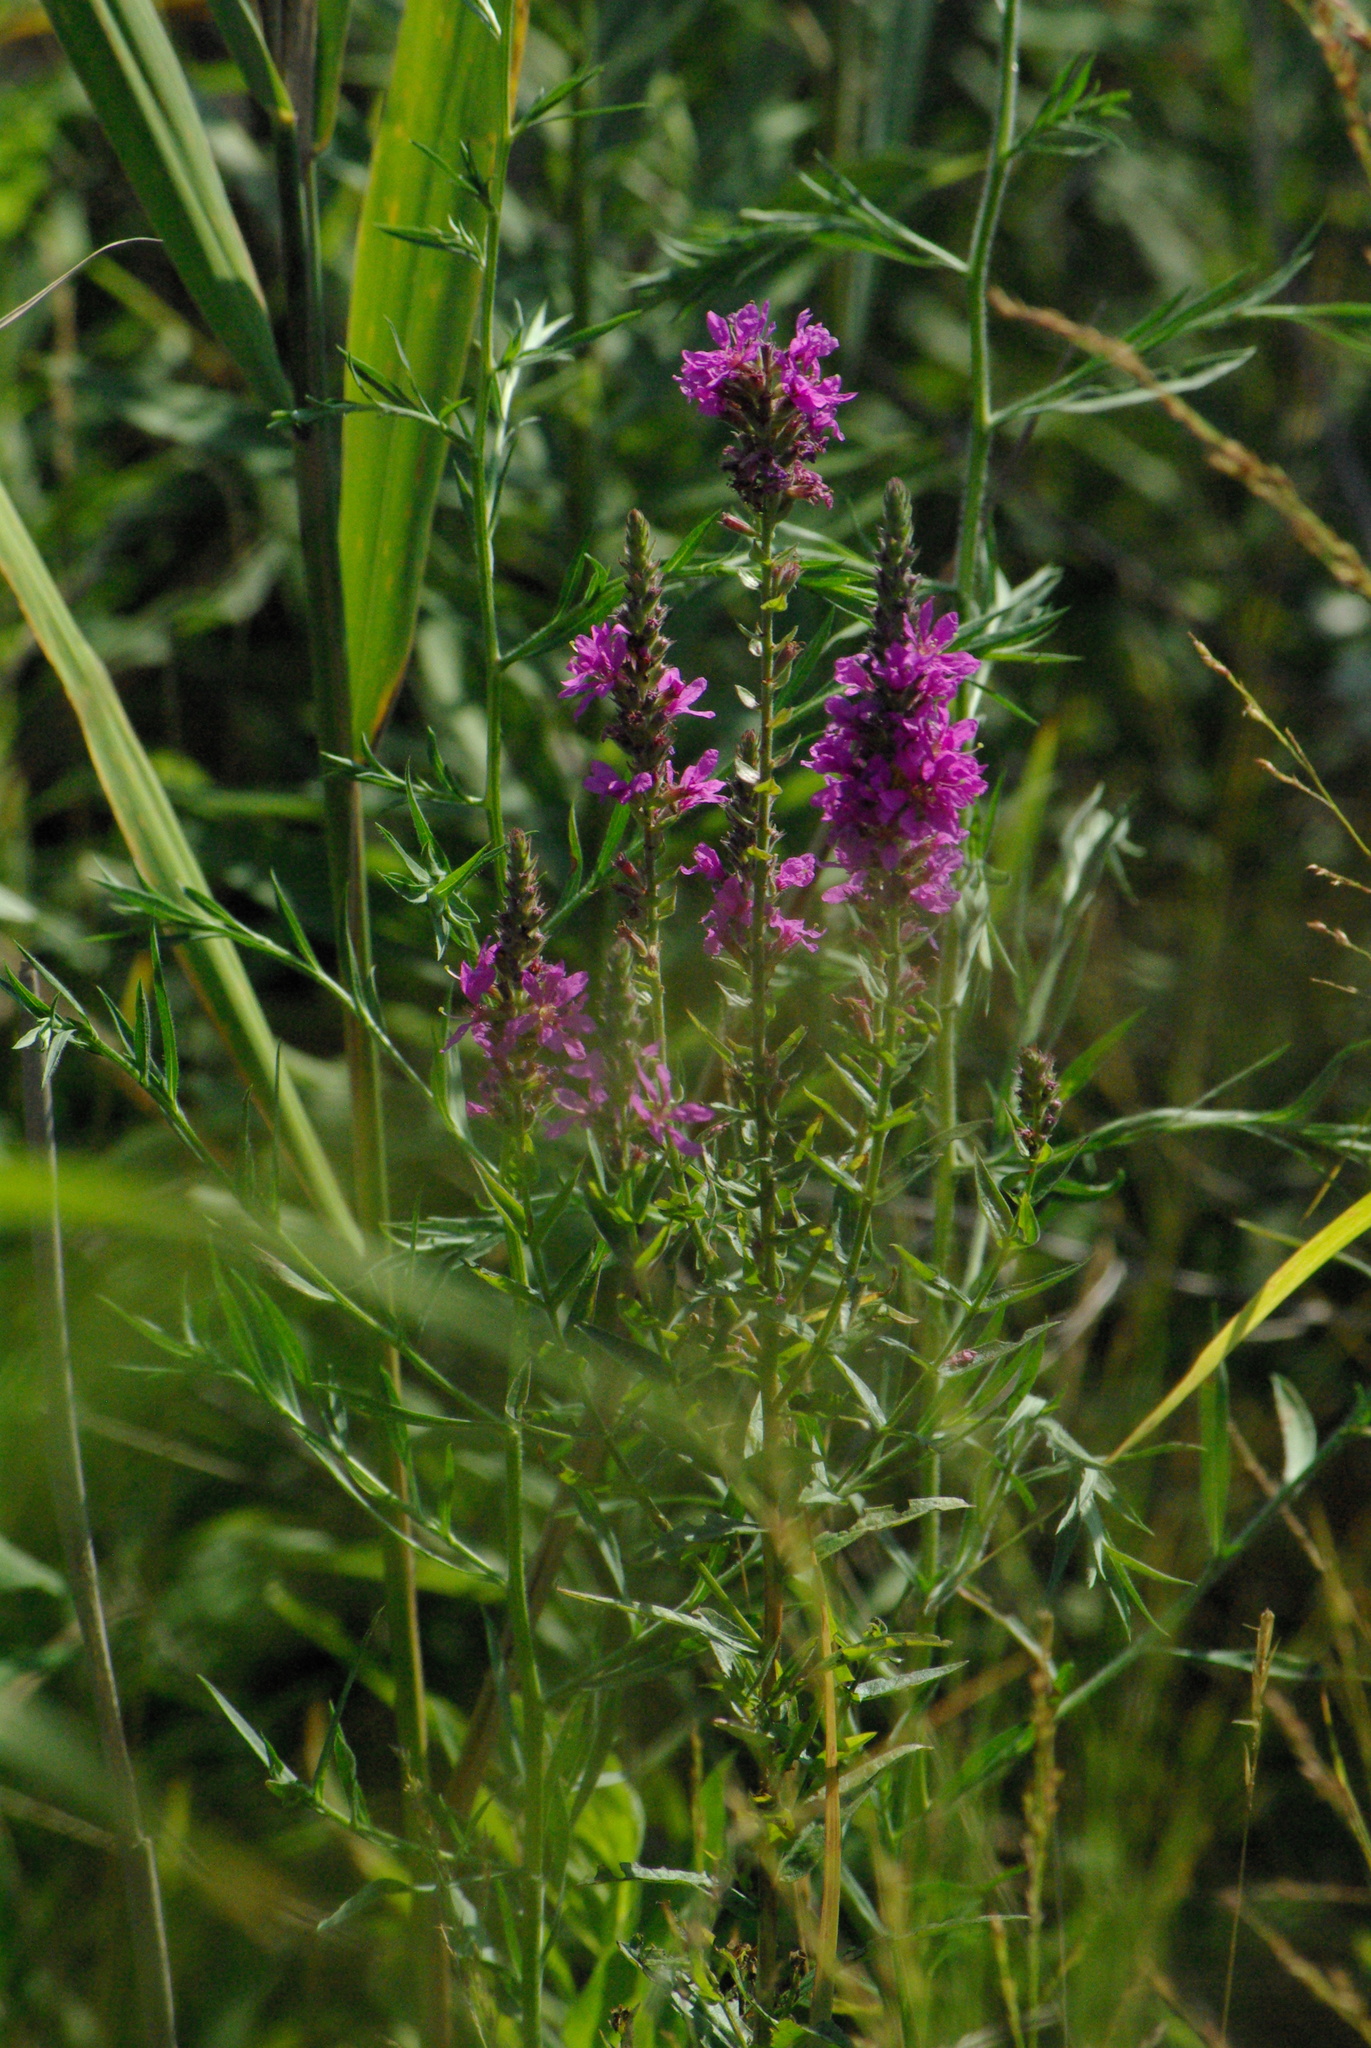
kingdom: Plantae
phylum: Tracheophyta
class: Magnoliopsida
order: Myrtales
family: Lythraceae
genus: Lythrum
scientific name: Lythrum salicaria
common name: Purple loosestrife
